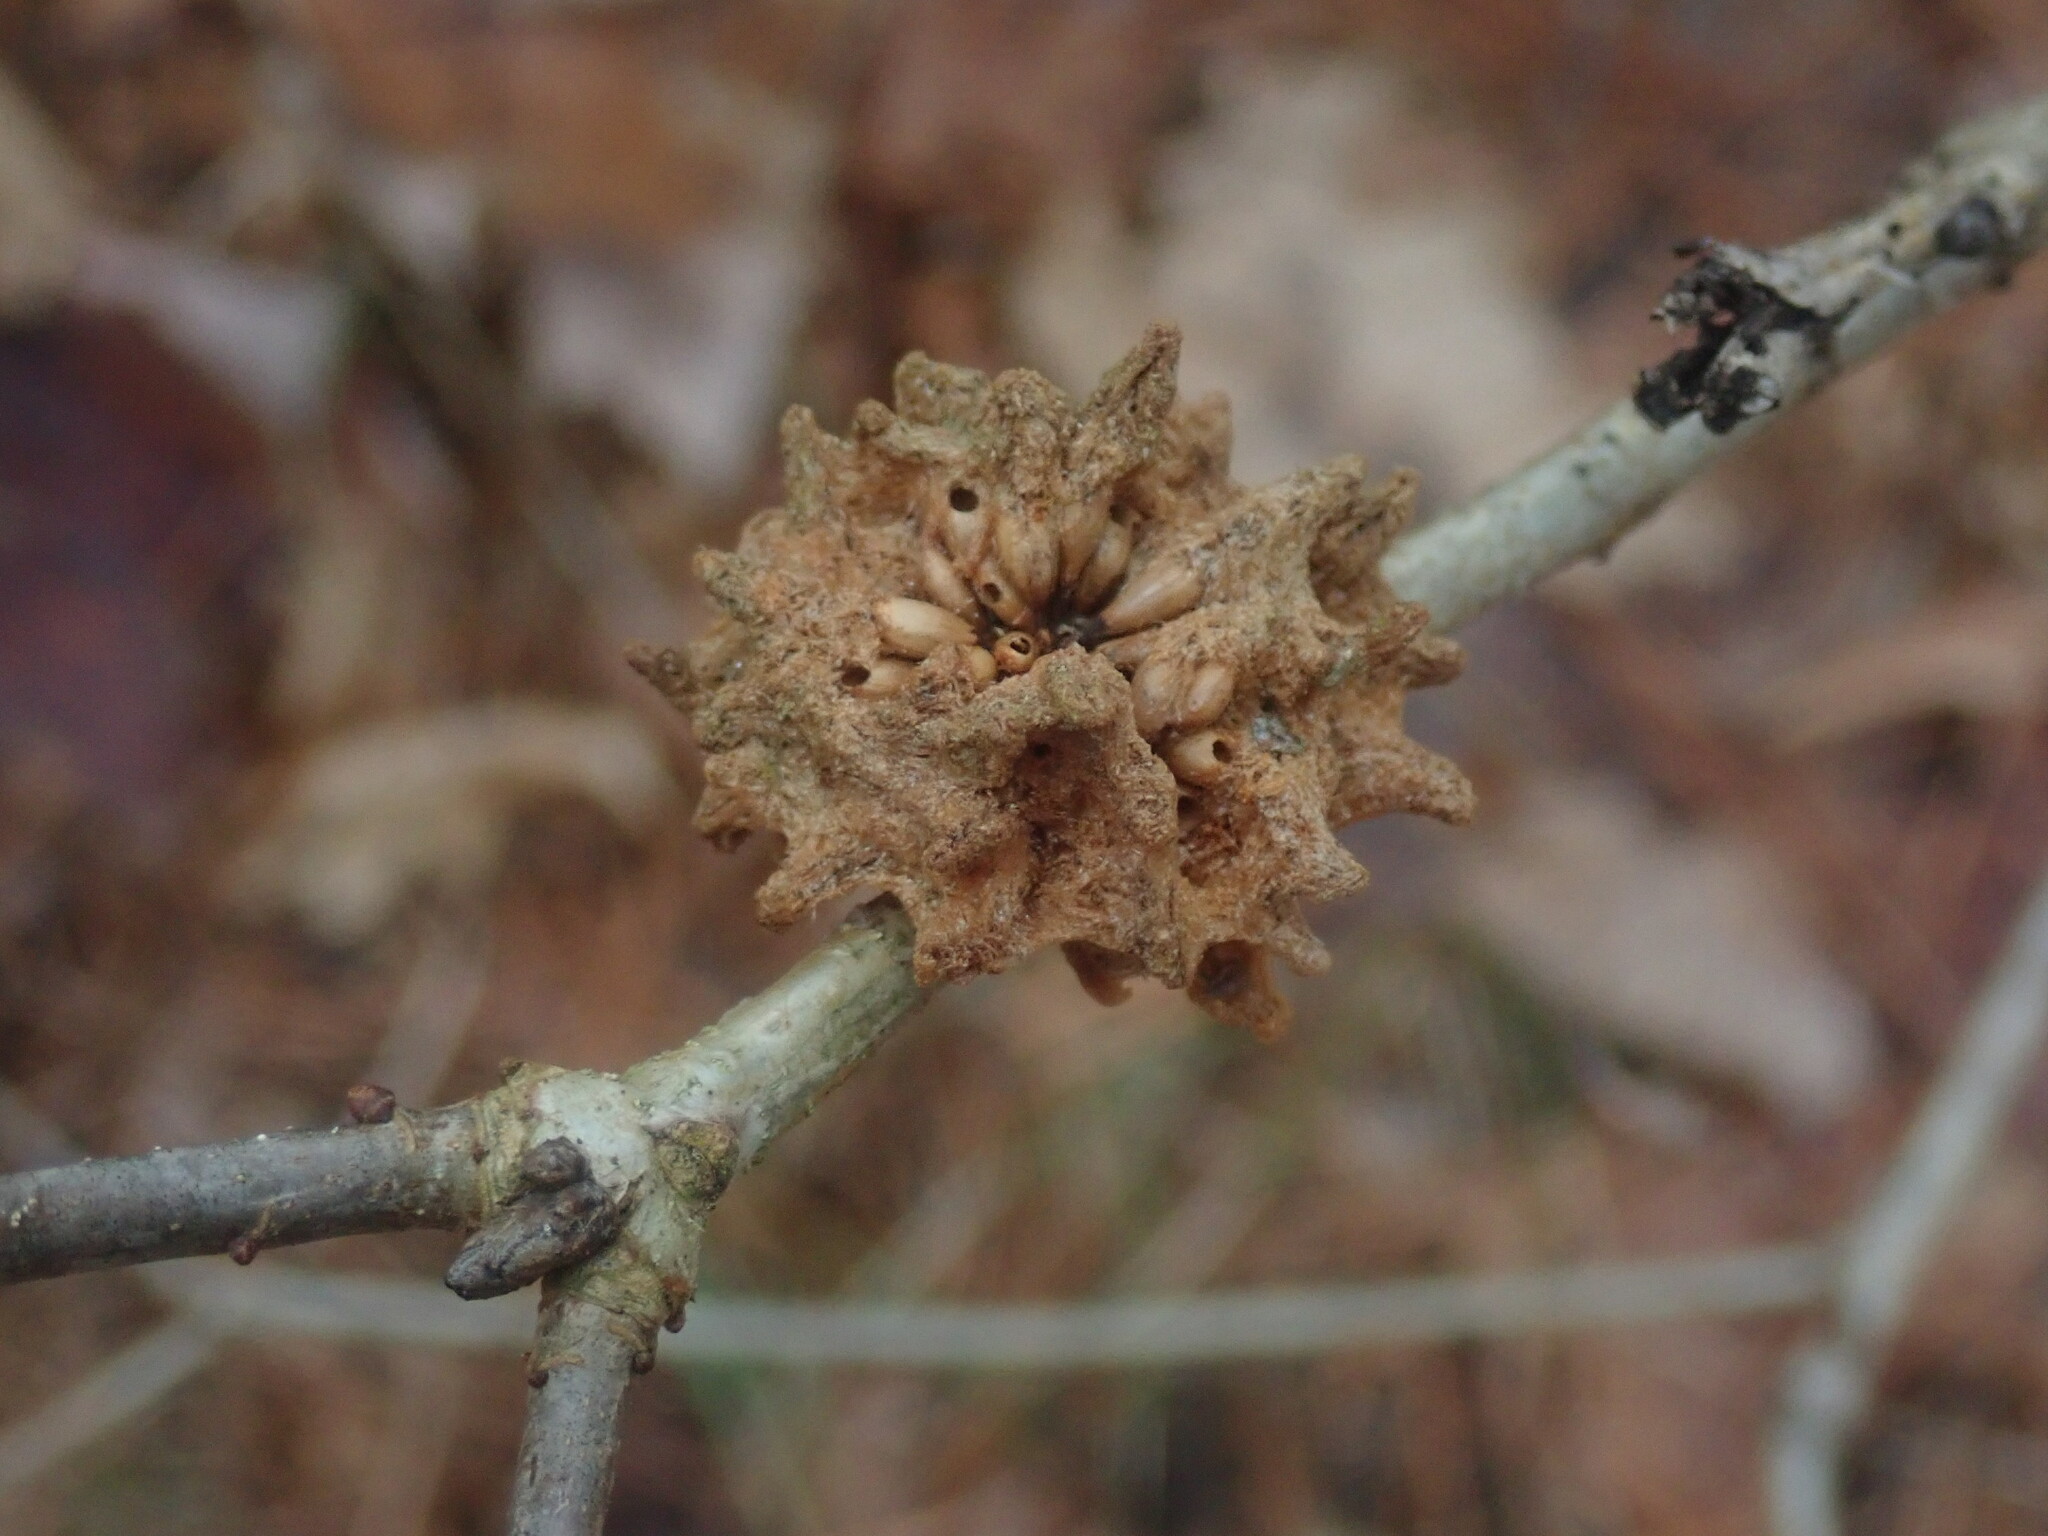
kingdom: Animalia
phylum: Arthropoda
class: Insecta
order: Hymenoptera
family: Cynipidae
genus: Callirhytis
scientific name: Callirhytis
